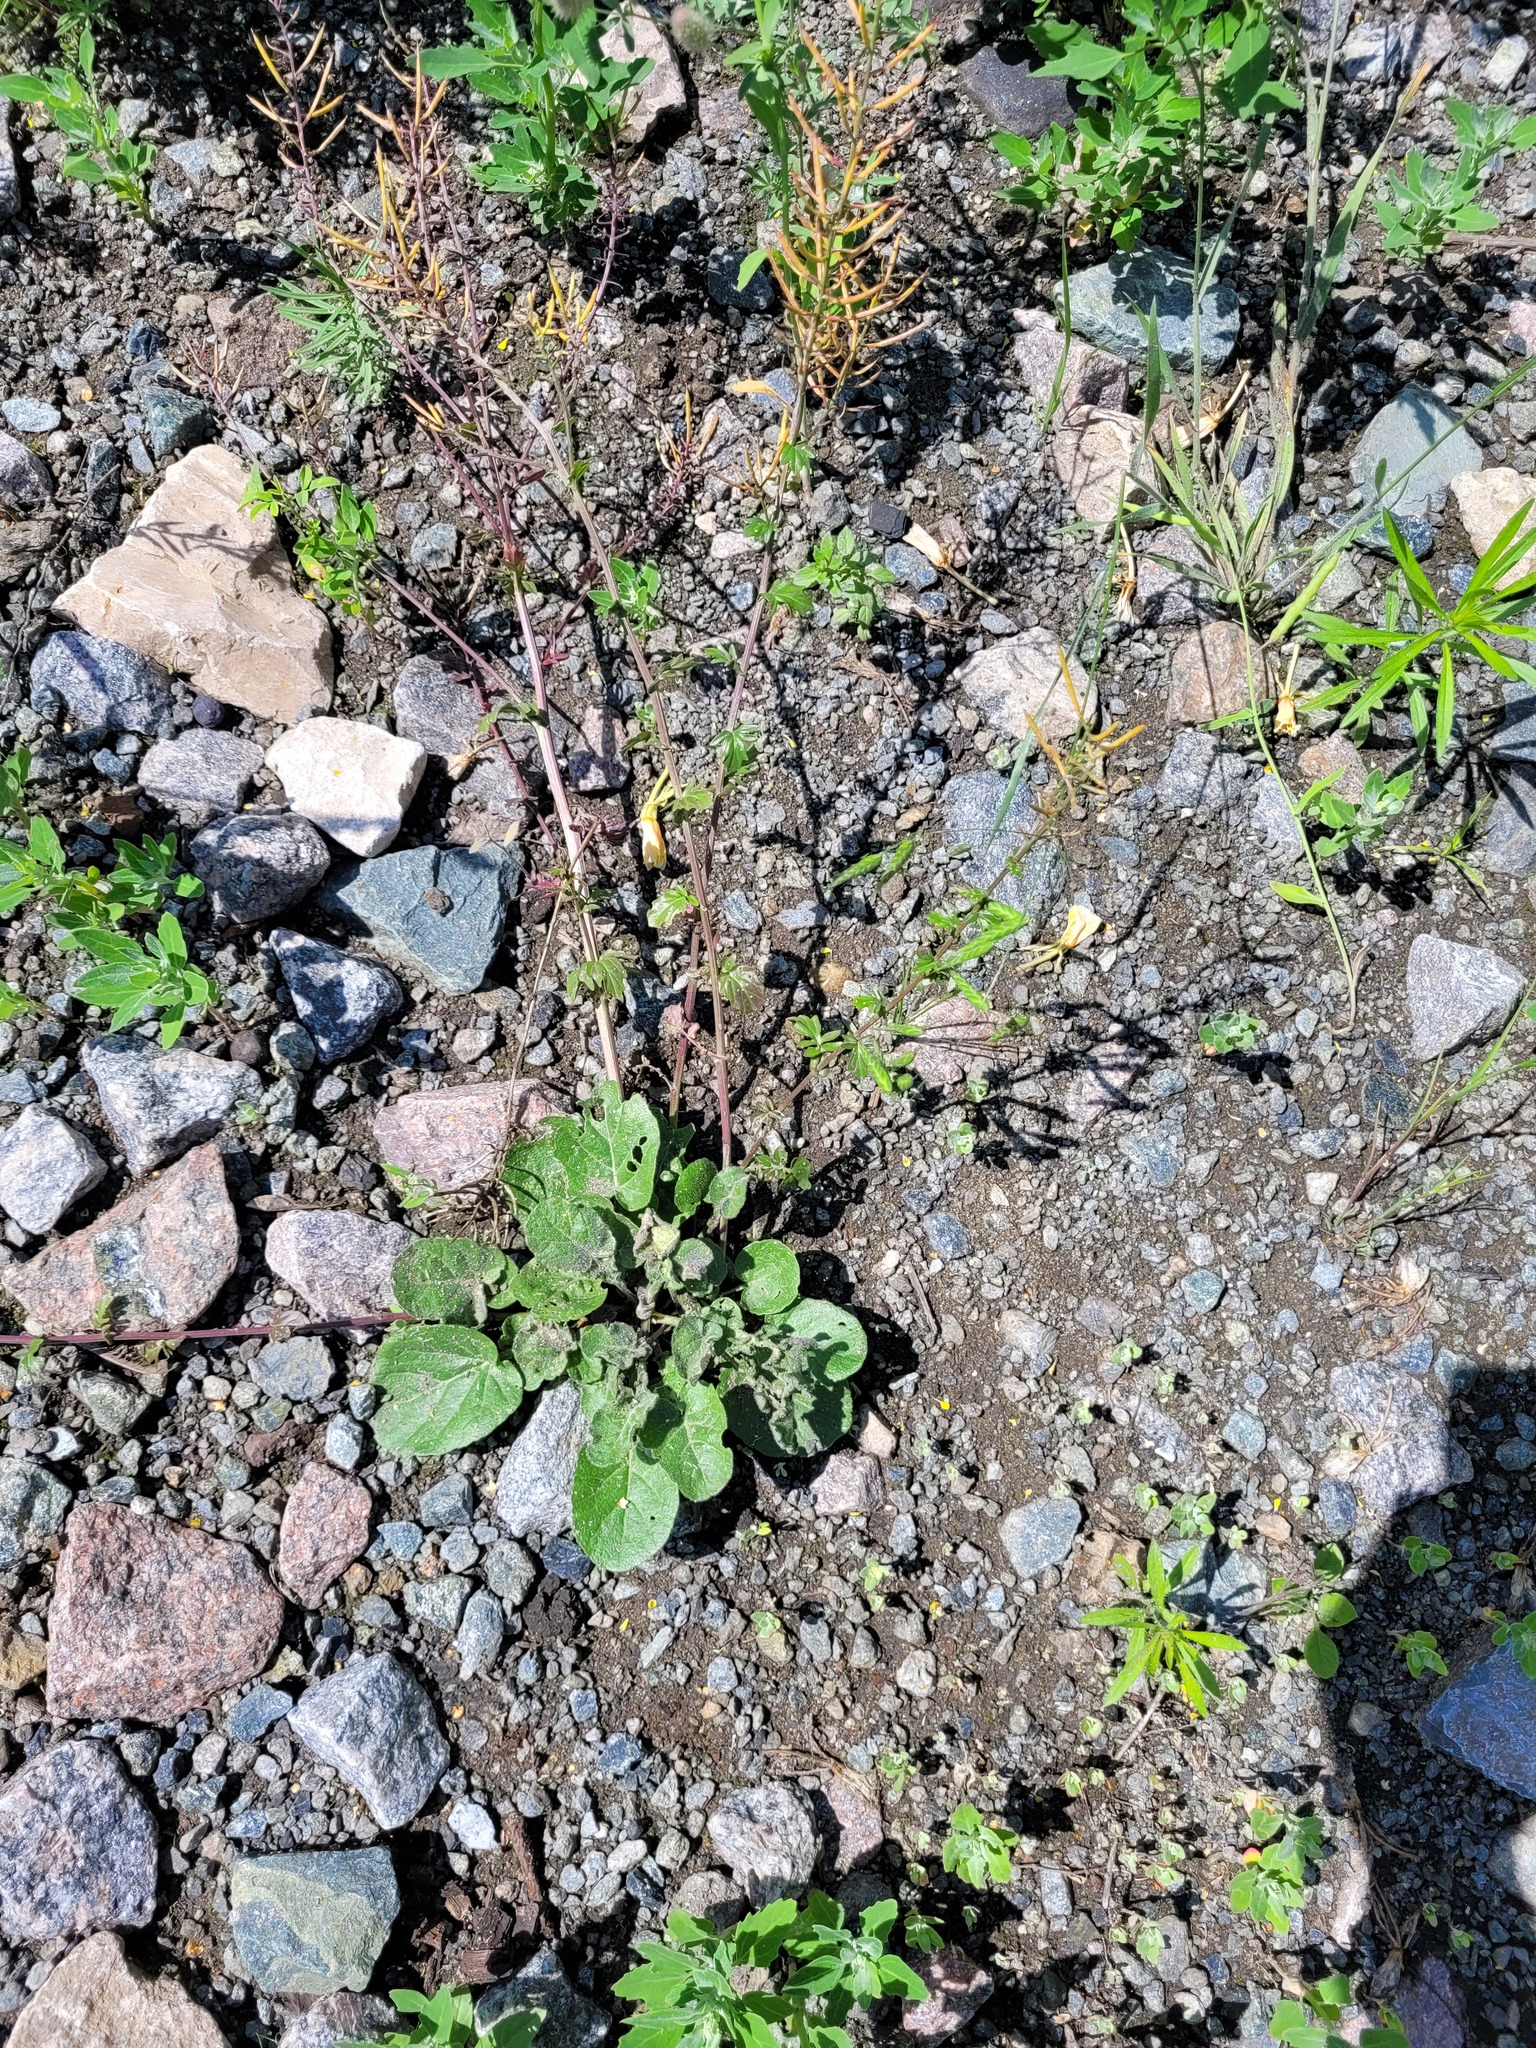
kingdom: Plantae
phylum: Tracheophyta
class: Magnoliopsida
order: Brassicales
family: Brassicaceae
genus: Barbarea
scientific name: Barbarea vulgaris
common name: Cressy-greens
